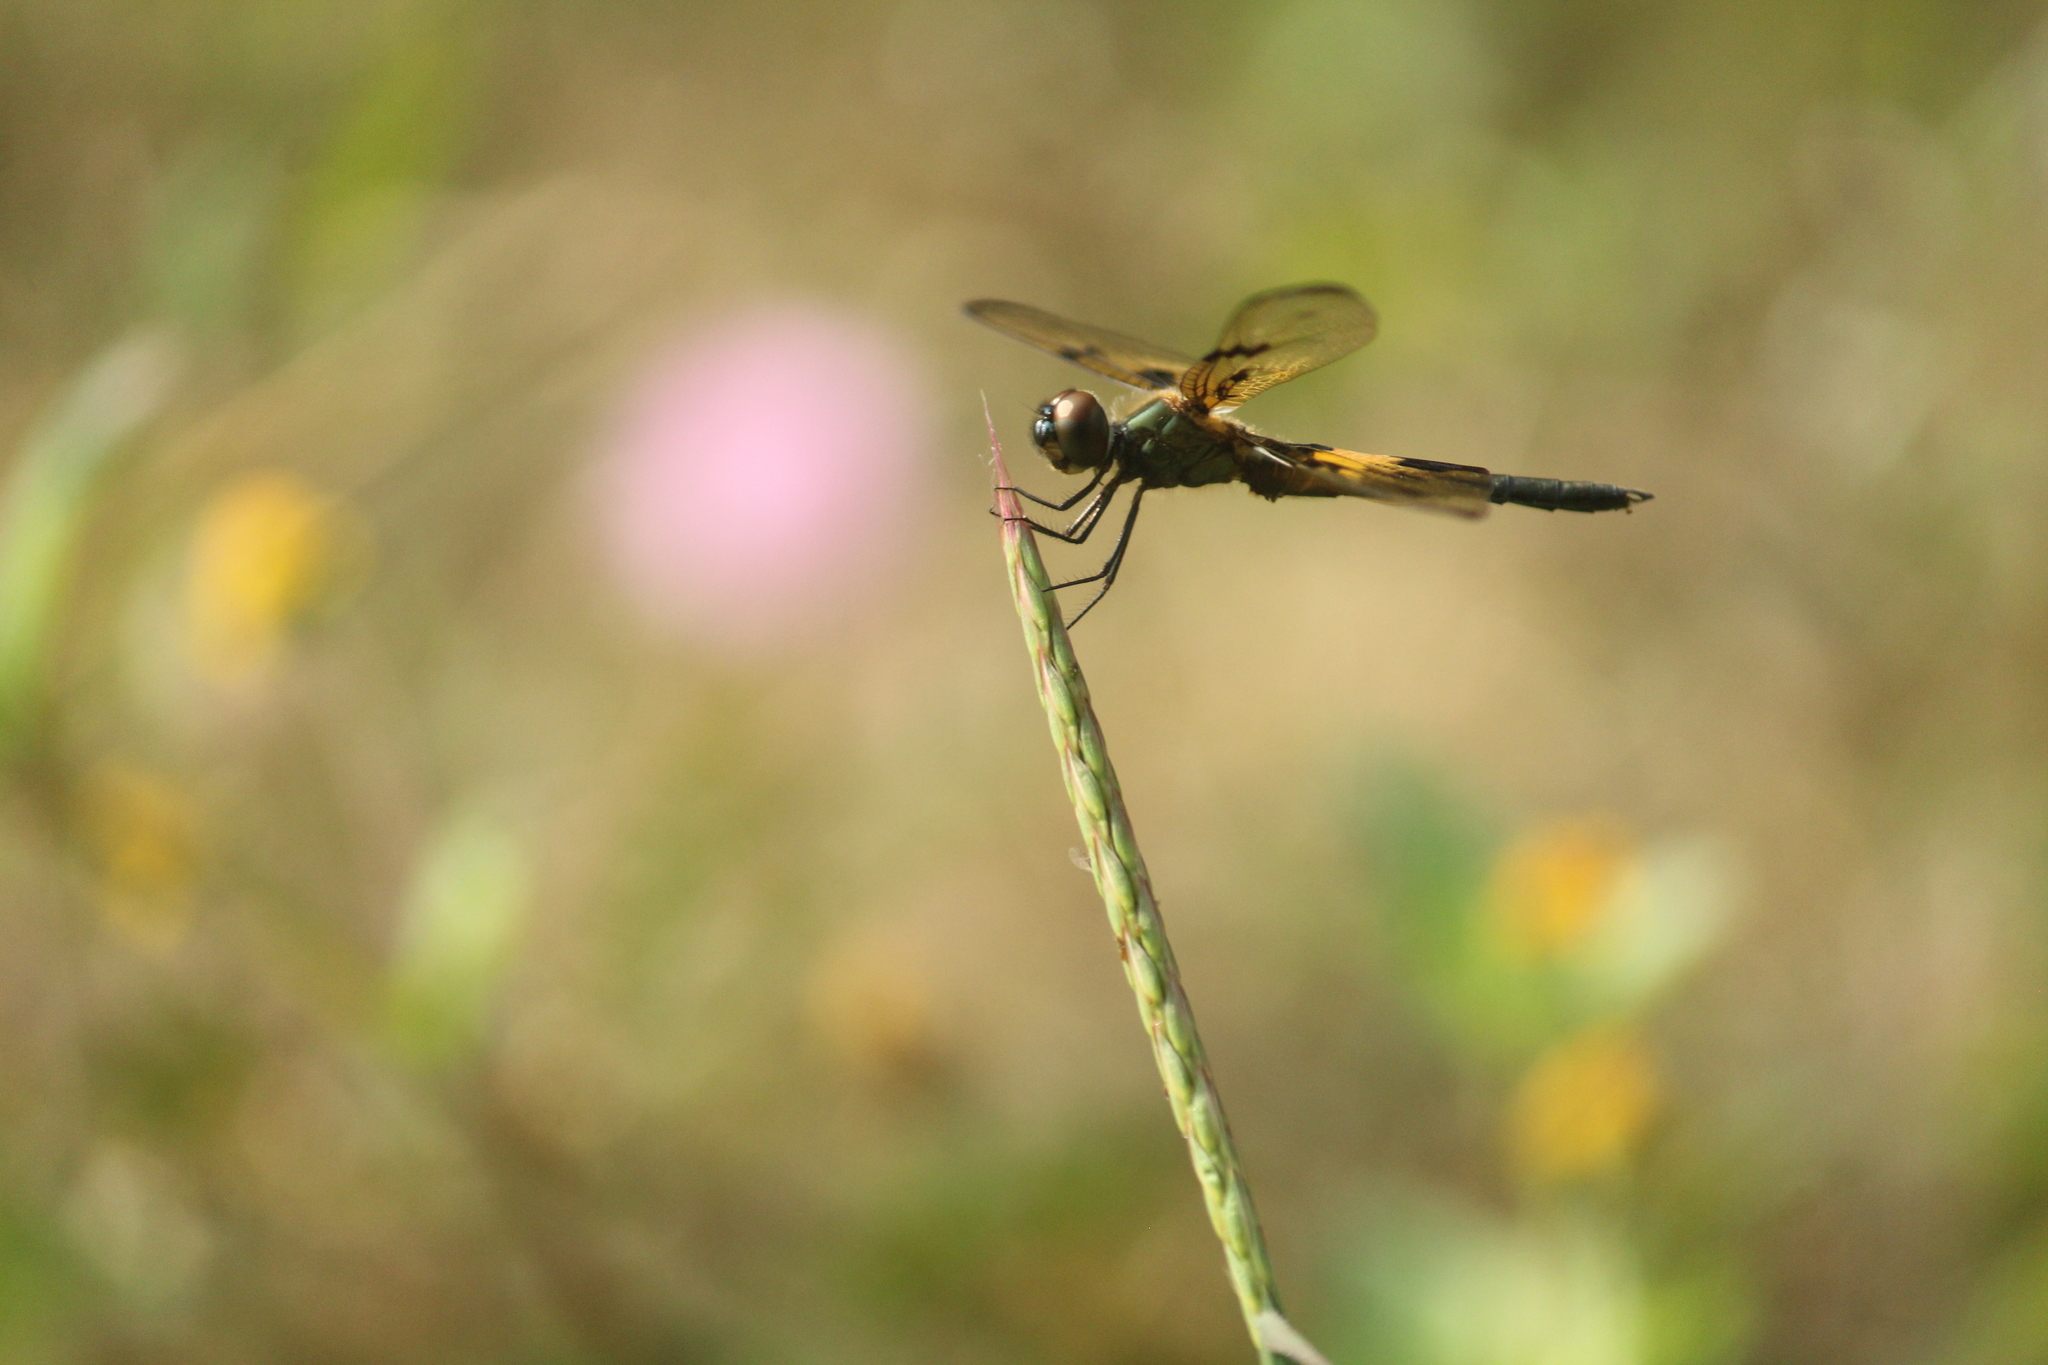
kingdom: Animalia
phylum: Arthropoda
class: Insecta
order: Odonata
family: Libellulidae
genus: Rhyothemis
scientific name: Rhyothemis variegata
